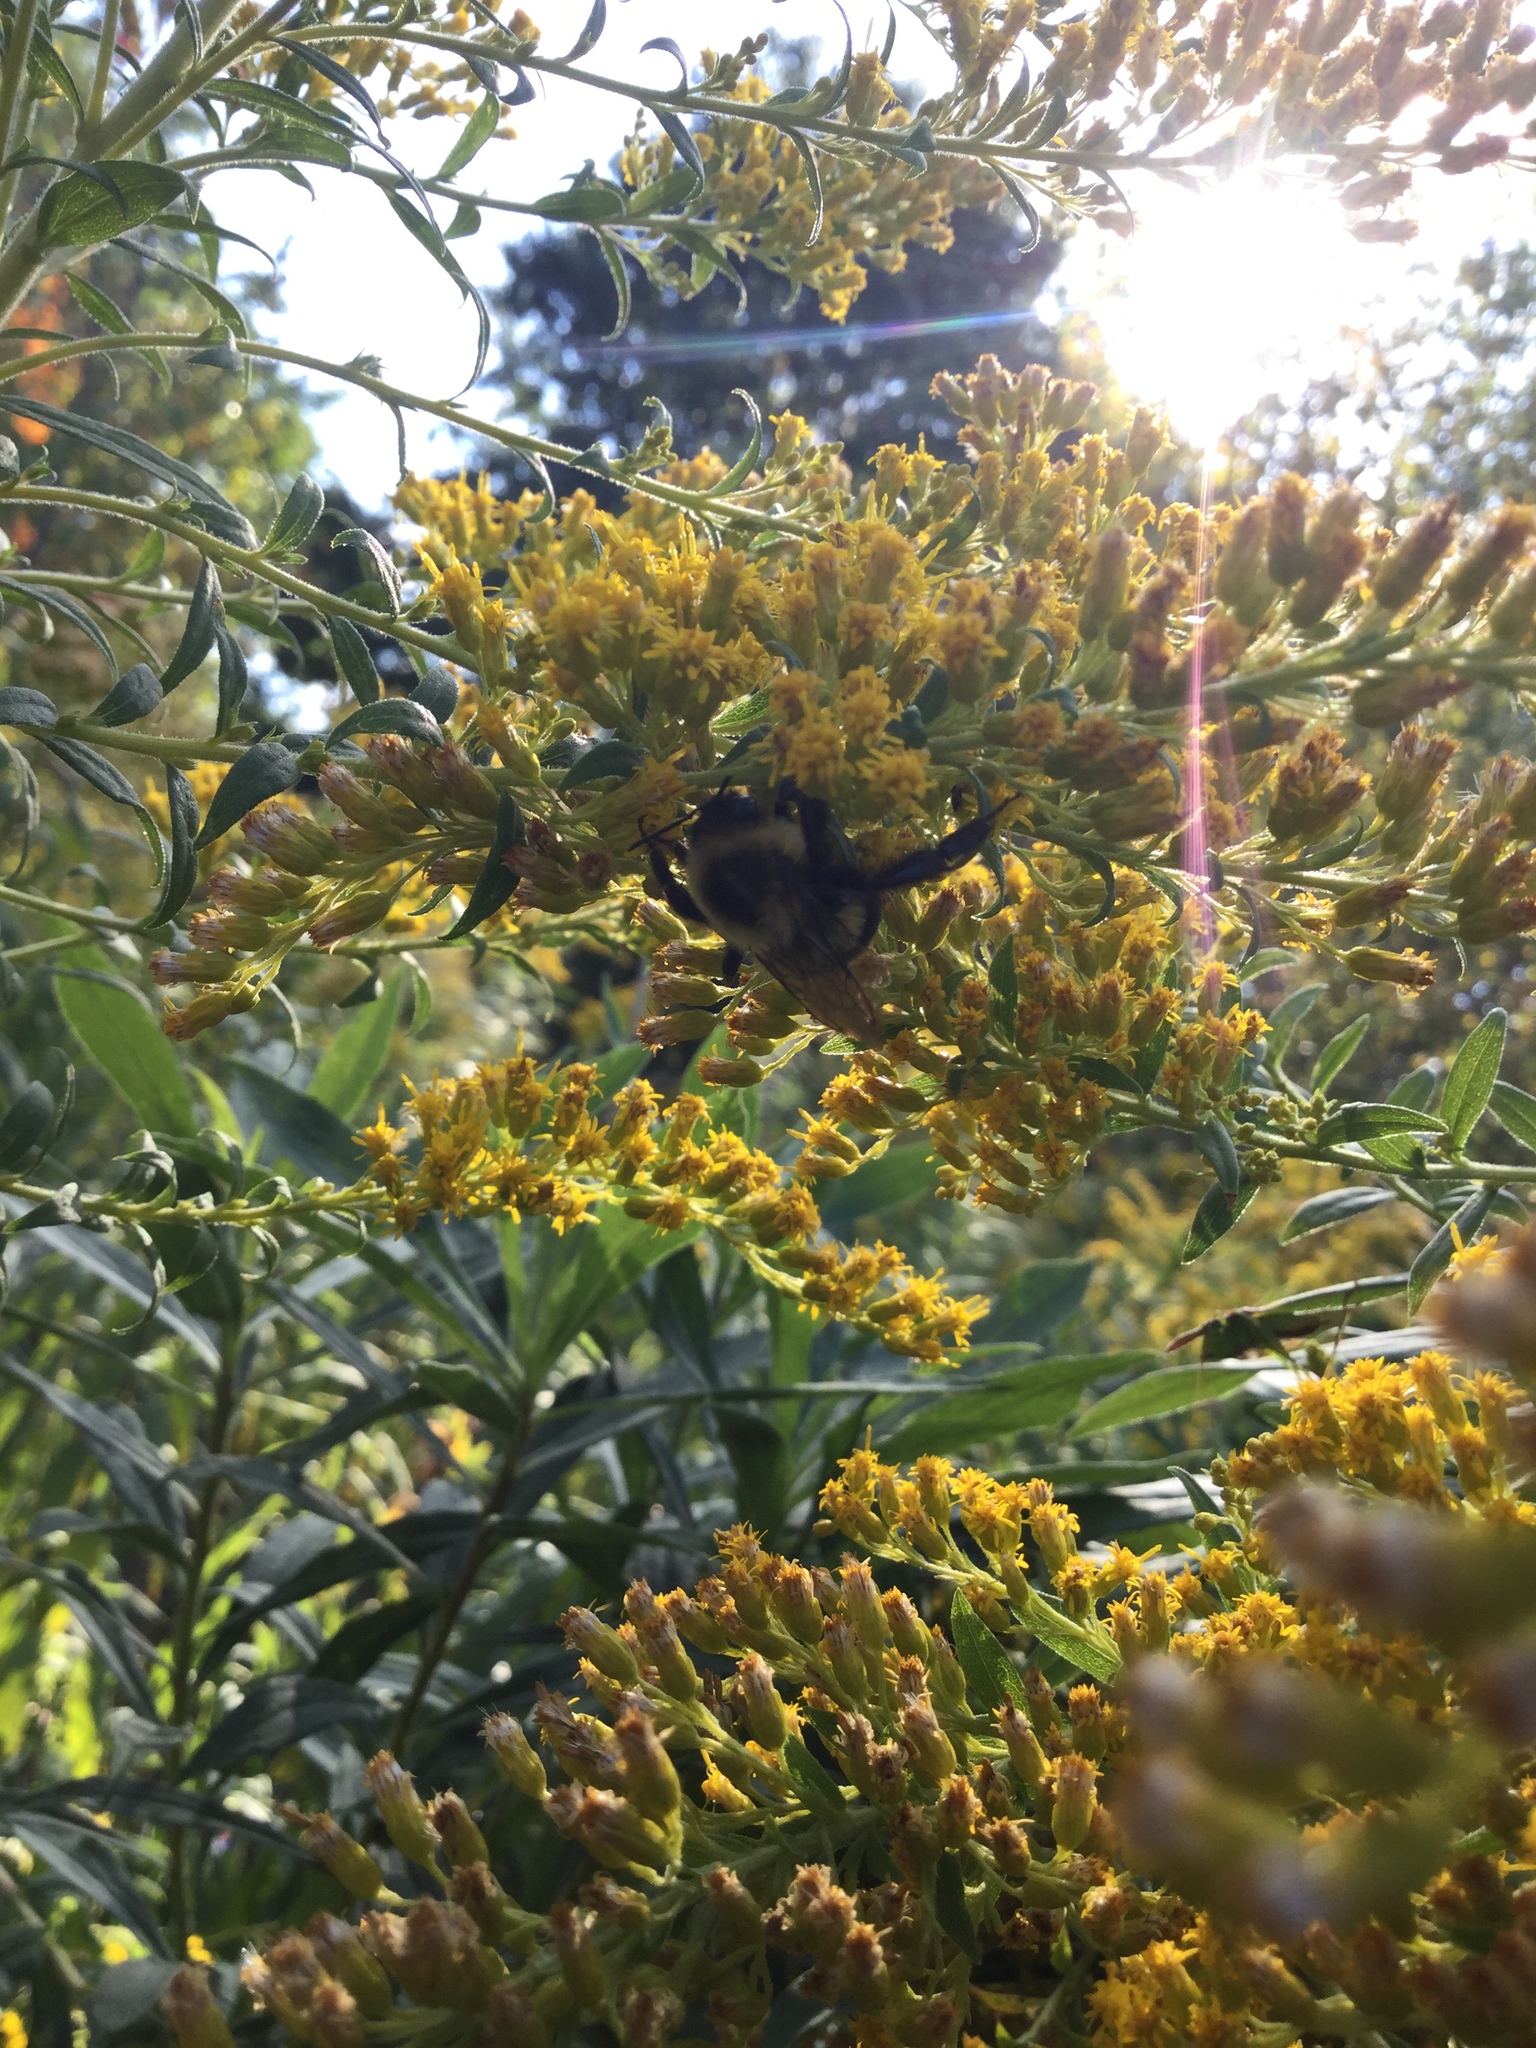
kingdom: Animalia
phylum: Arthropoda
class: Insecta
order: Hymenoptera
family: Apidae
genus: Bombus
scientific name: Bombus impatiens
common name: Common eastern bumble bee
